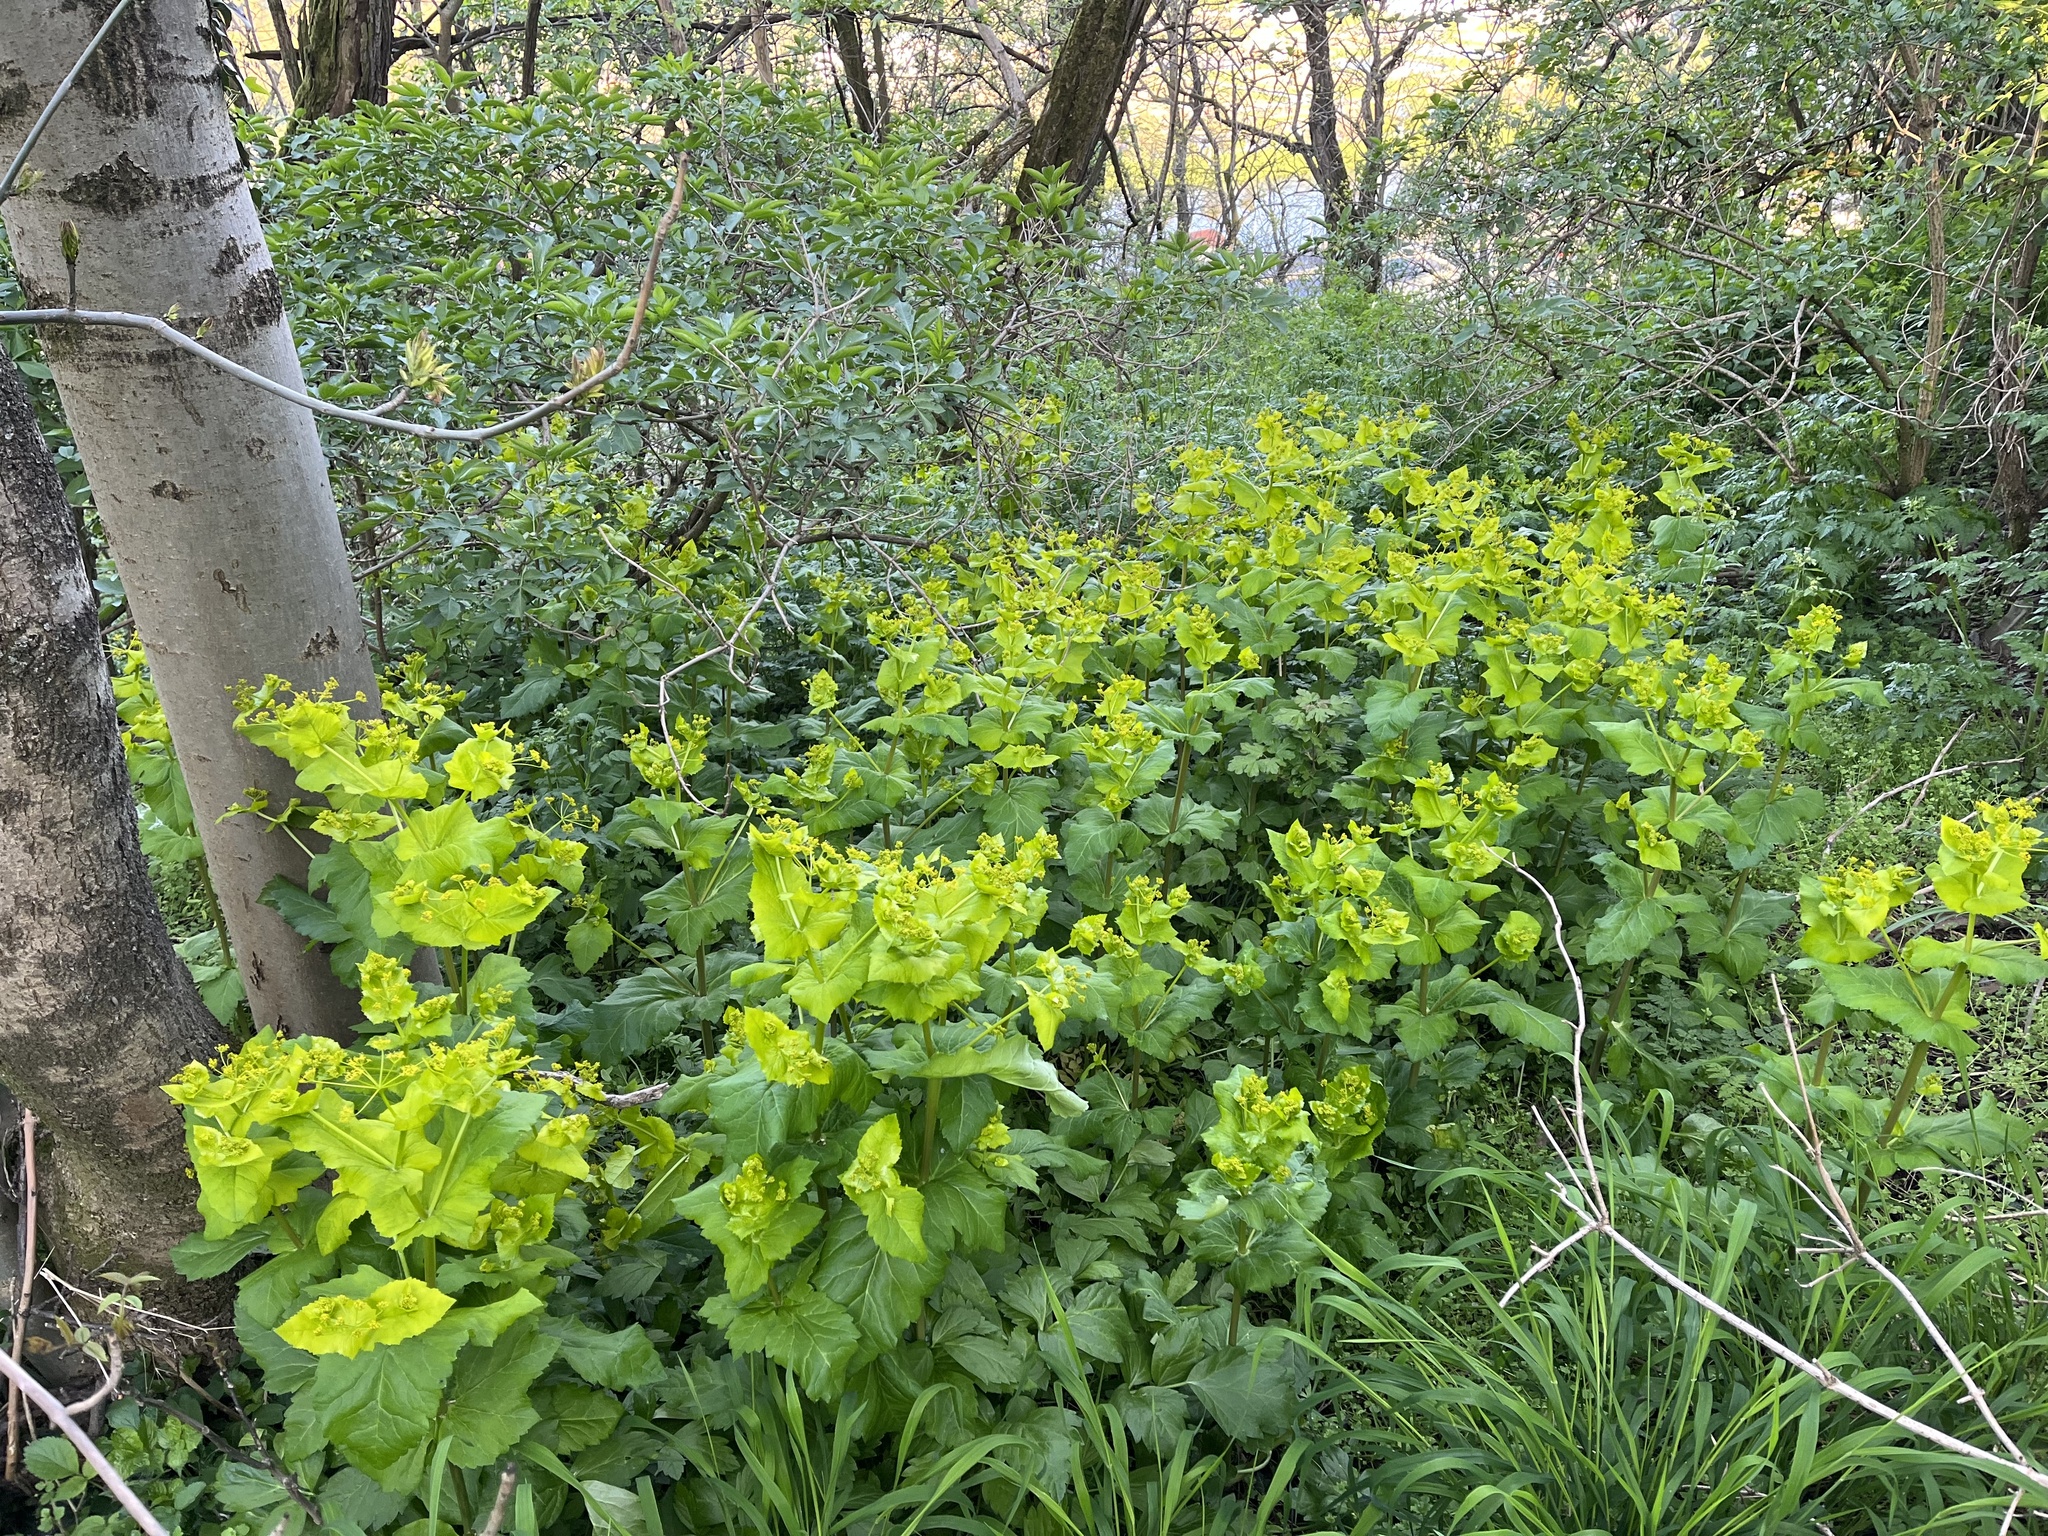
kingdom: Plantae
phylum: Tracheophyta
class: Magnoliopsida
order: Apiales
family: Apiaceae
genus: Smyrnium
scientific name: Smyrnium perfoliatum
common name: Perfoliate alexanders
